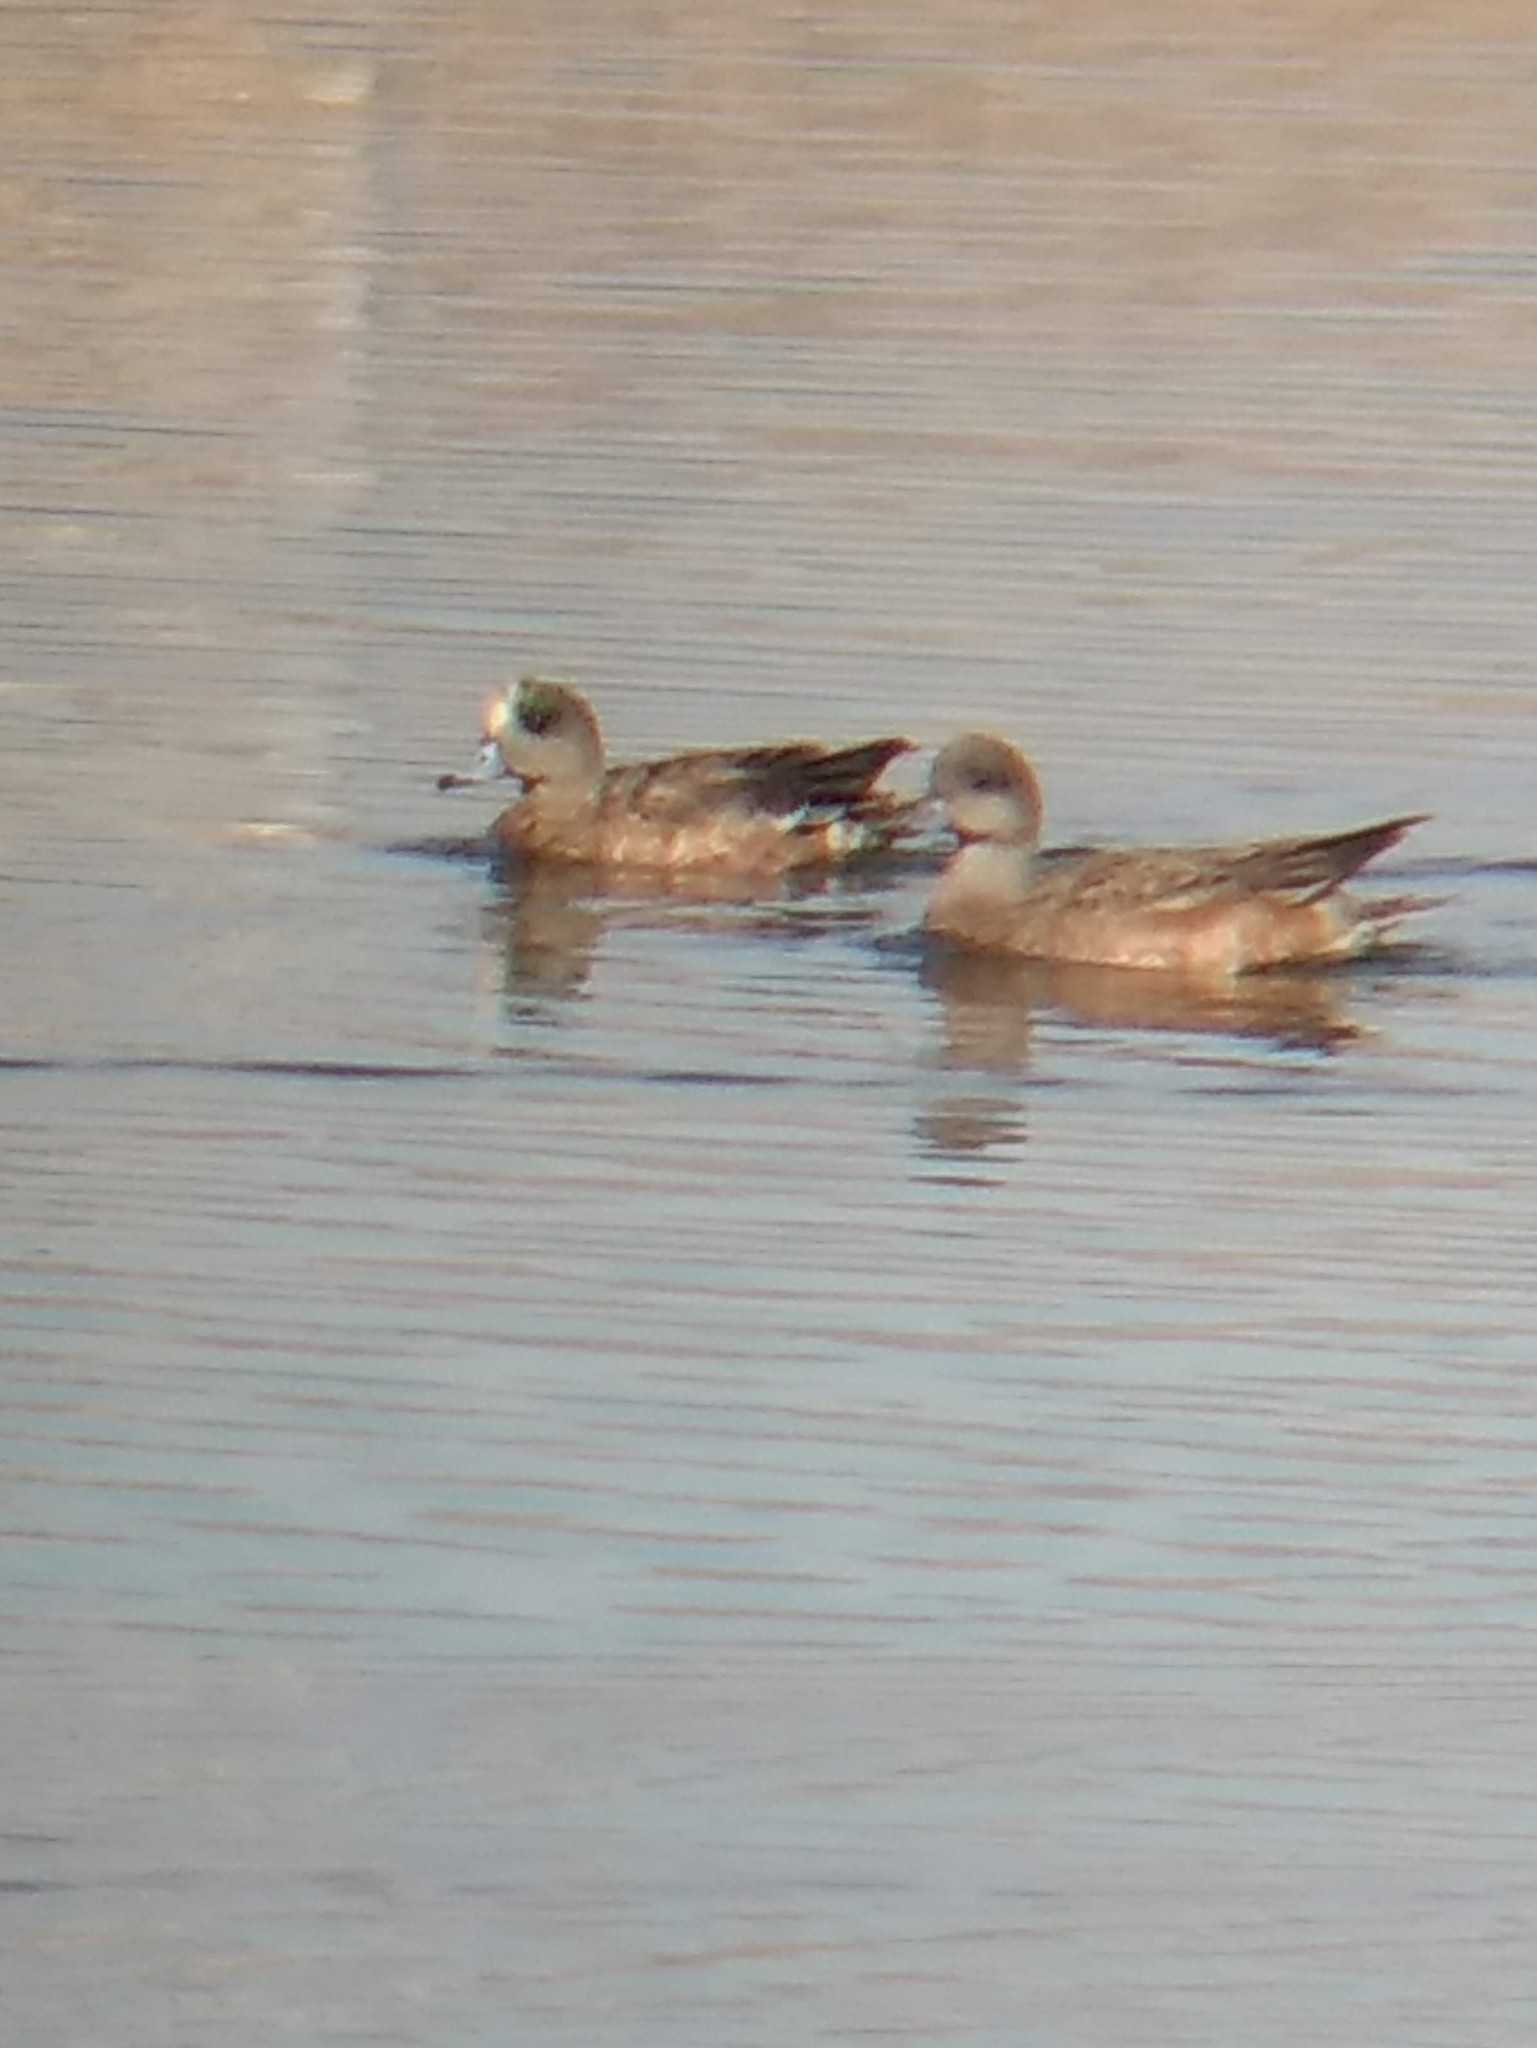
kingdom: Animalia
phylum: Chordata
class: Aves
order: Anseriformes
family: Anatidae
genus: Mareca
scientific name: Mareca americana
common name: American wigeon
